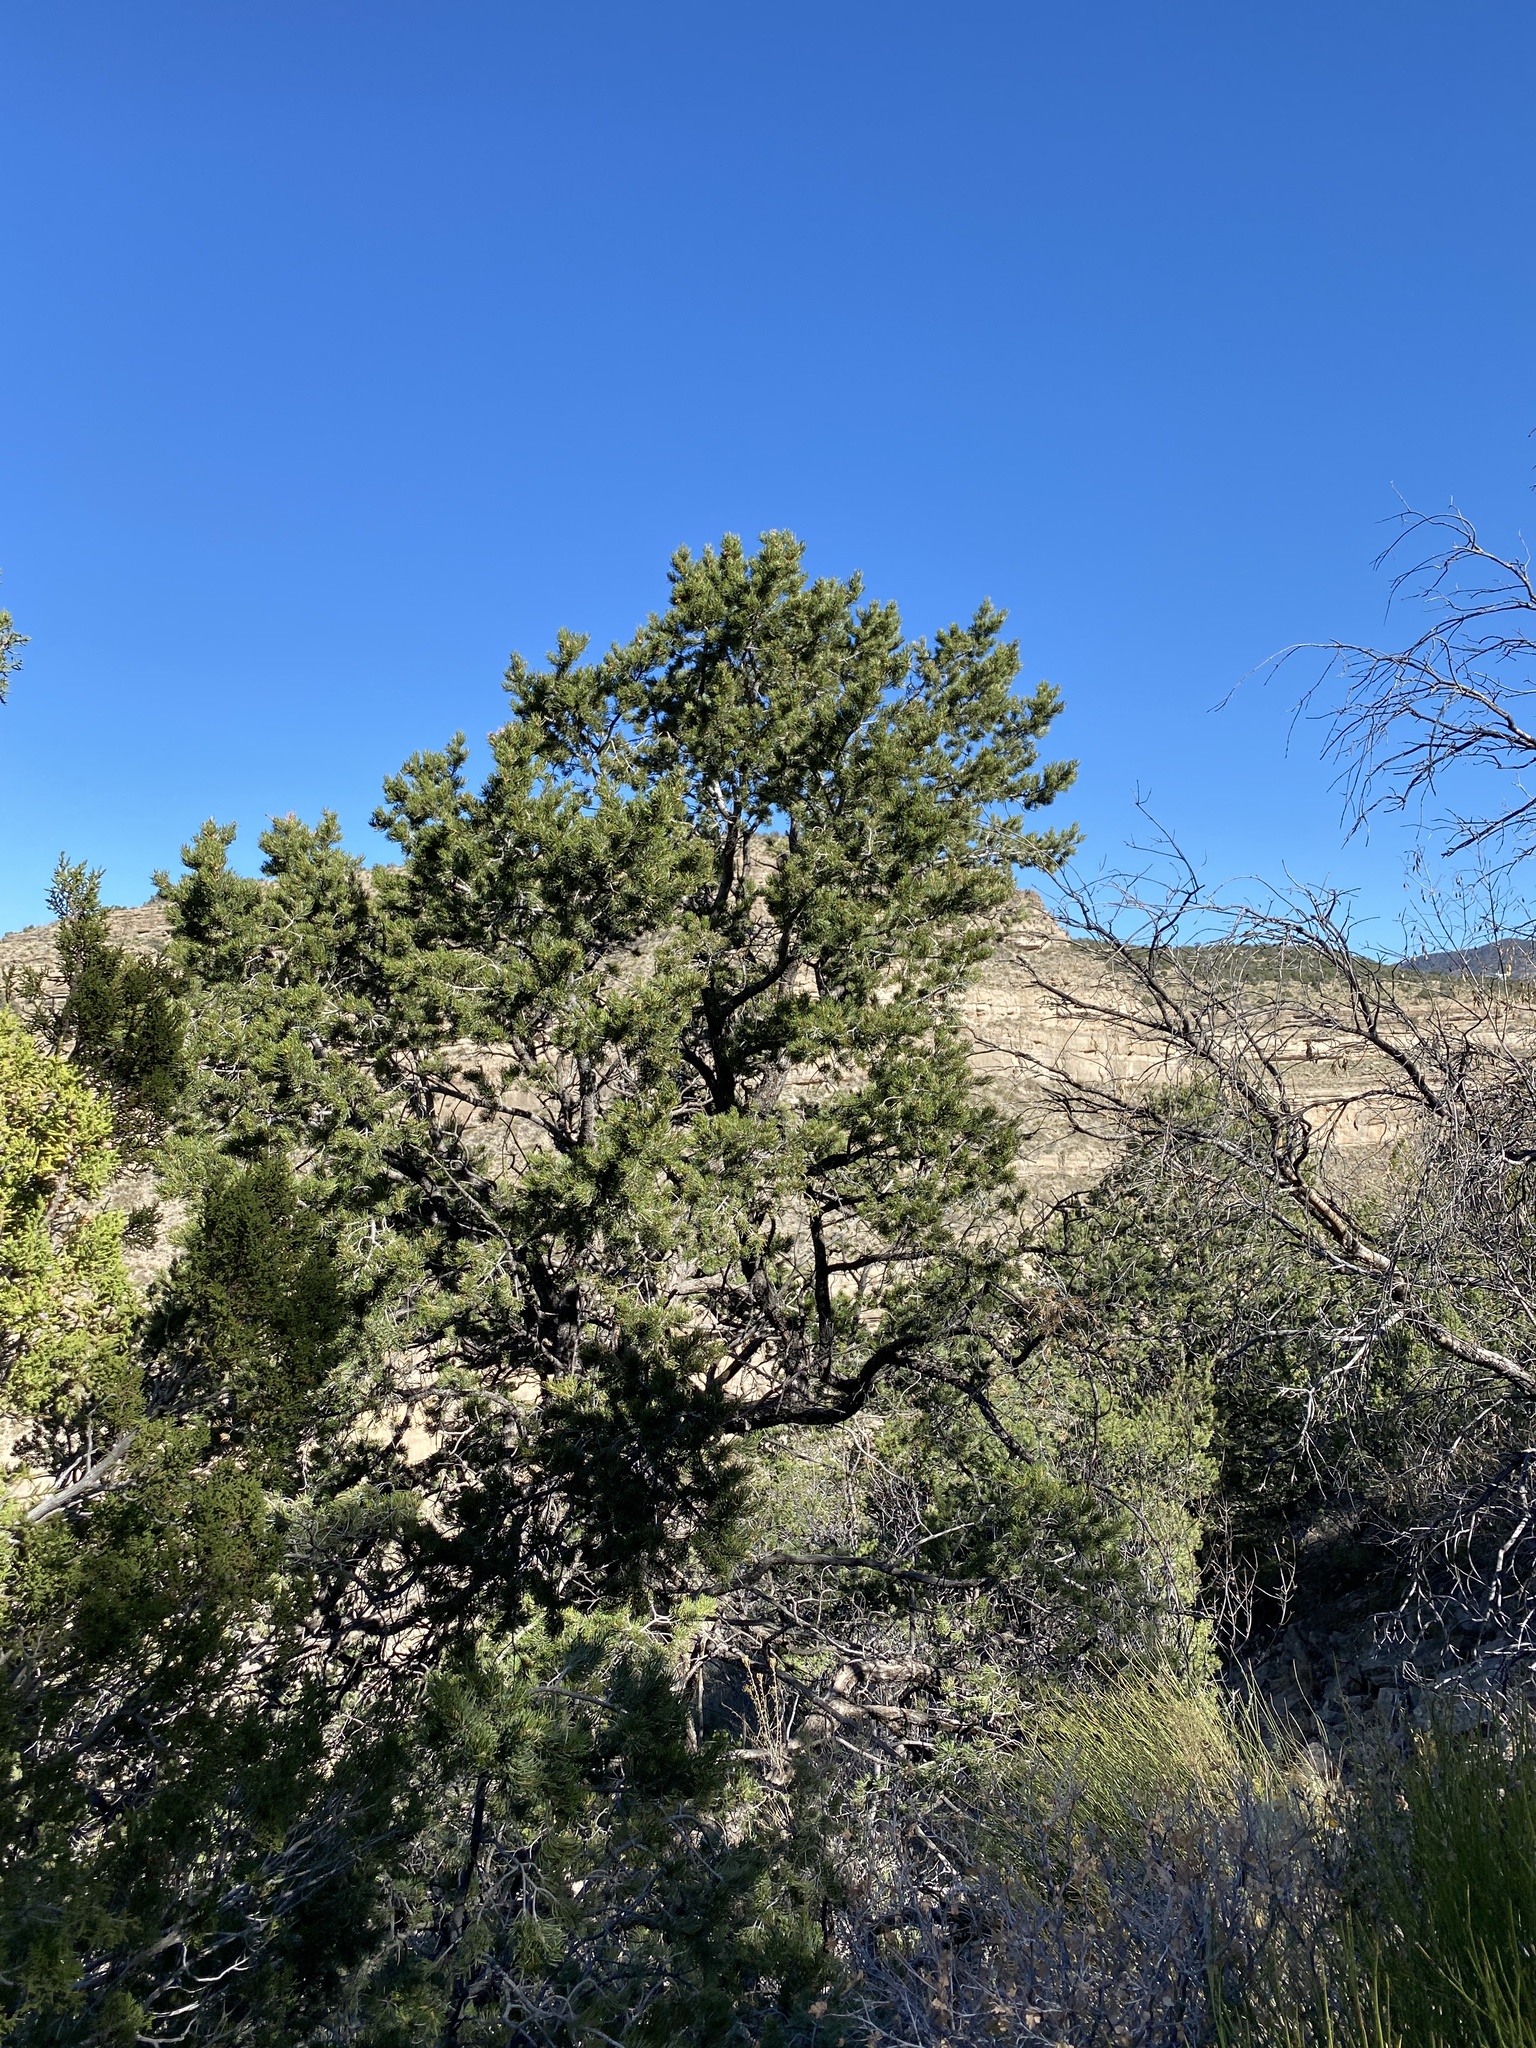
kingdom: Plantae
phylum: Tracheophyta
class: Pinopsida
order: Pinales
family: Pinaceae
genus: Pinus
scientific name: Pinus edulis
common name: Colorado pinyon
